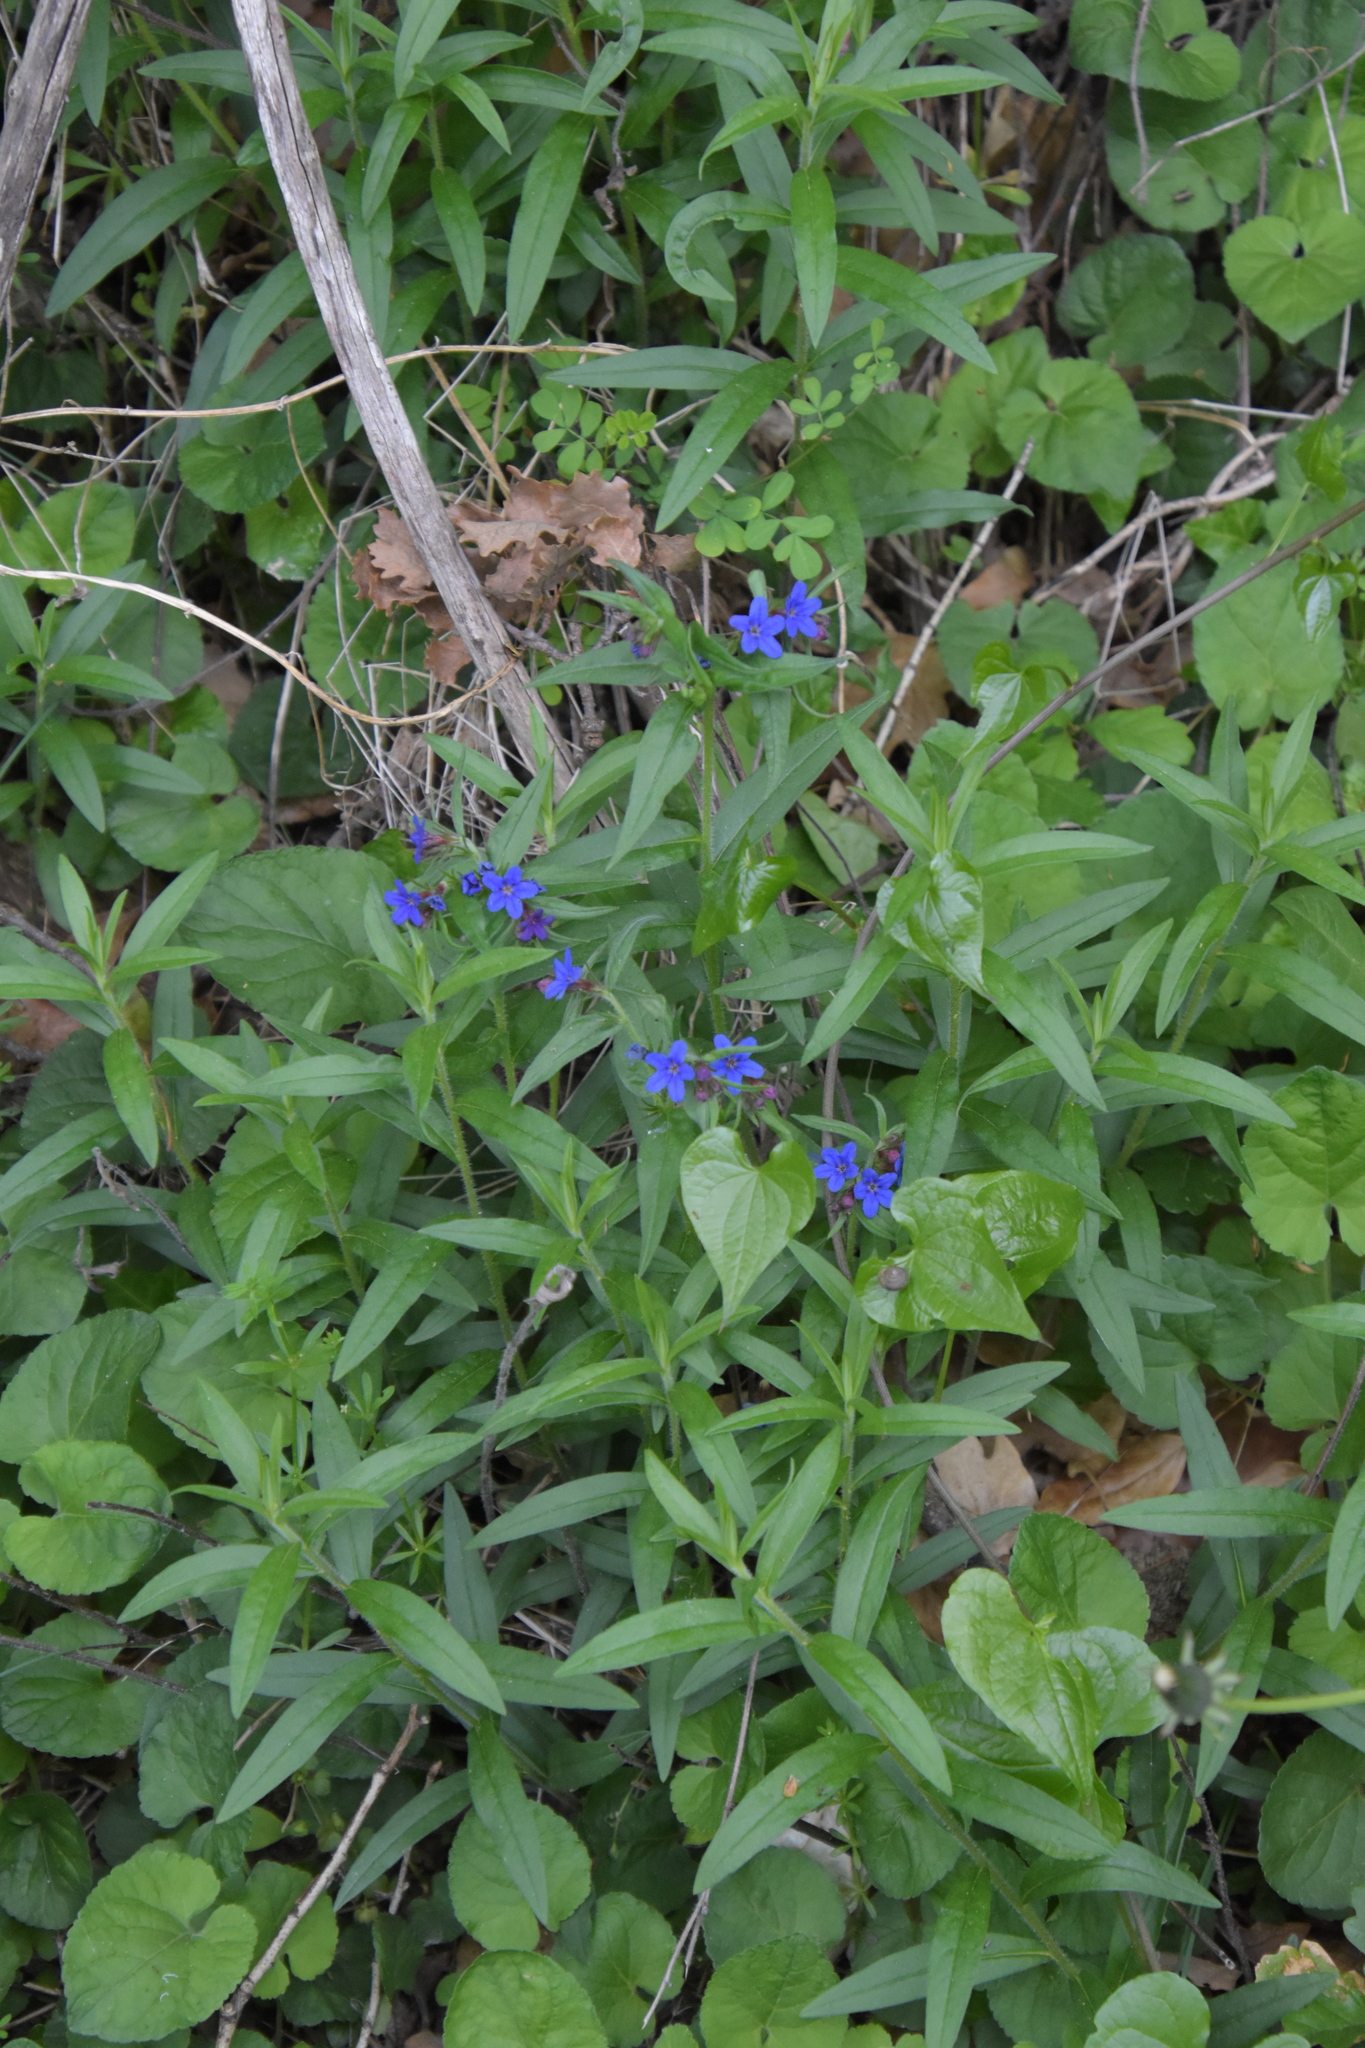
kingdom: Plantae
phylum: Tracheophyta
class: Magnoliopsida
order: Boraginales
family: Boraginaceae
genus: Aegonychon
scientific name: Aegonychon purpurocaeruleum
